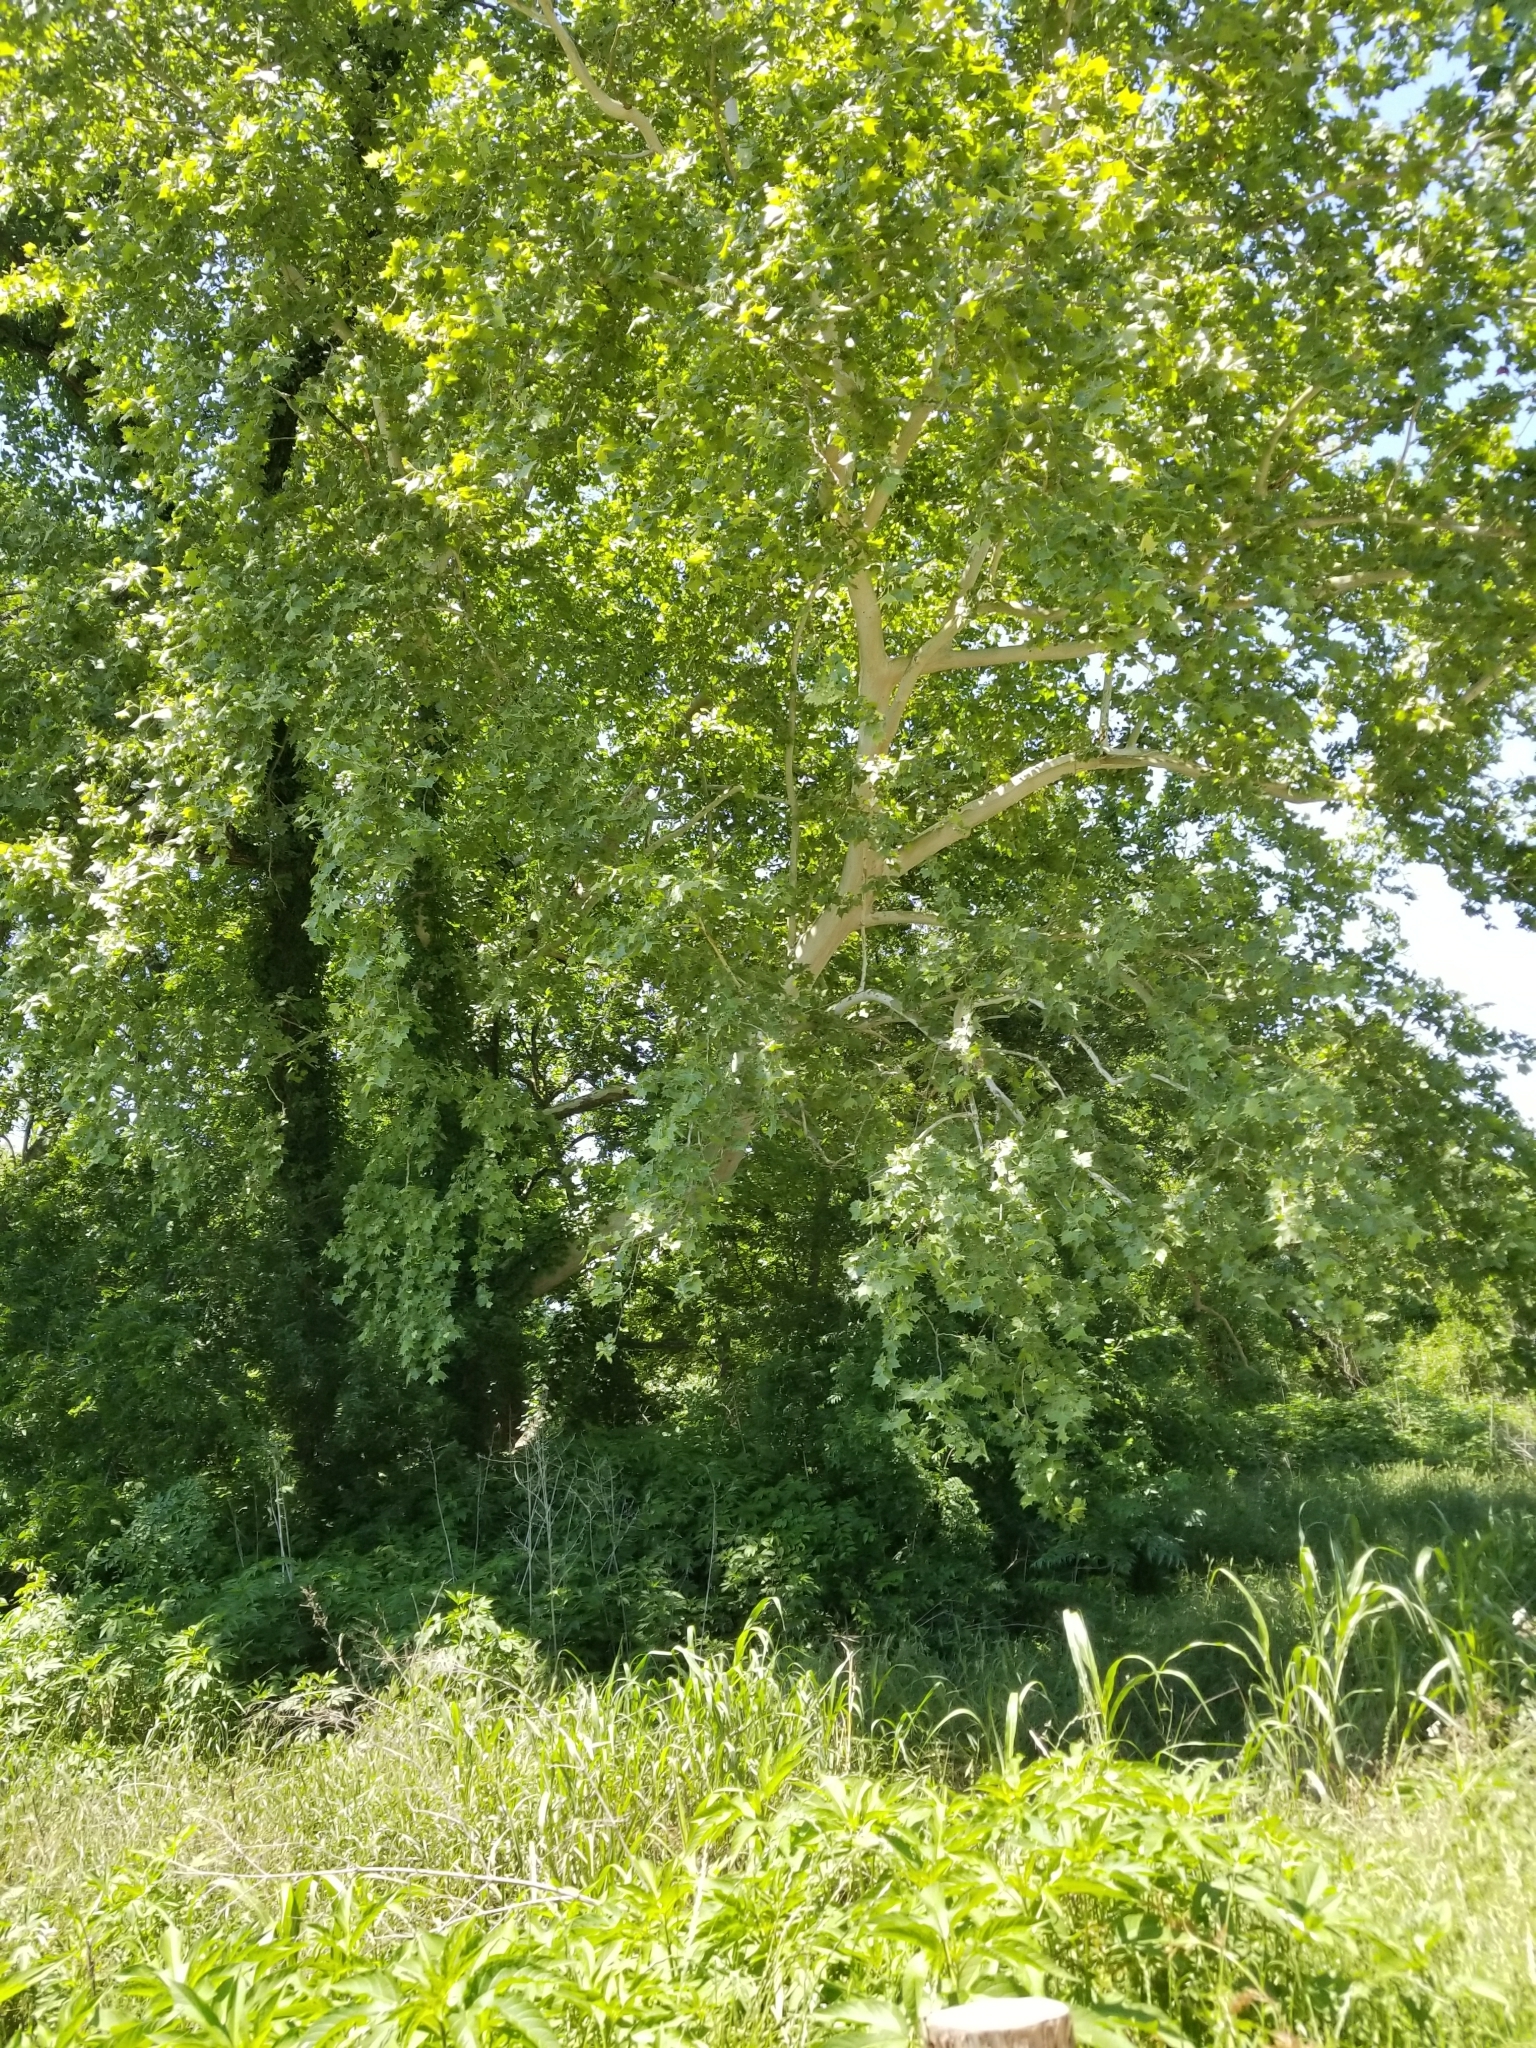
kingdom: Plantae
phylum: Tracheophyta
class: Magnoliopsida
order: Proteales
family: Platanaceae
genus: Platanus
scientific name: Platanus occidentalis
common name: American sycamore
